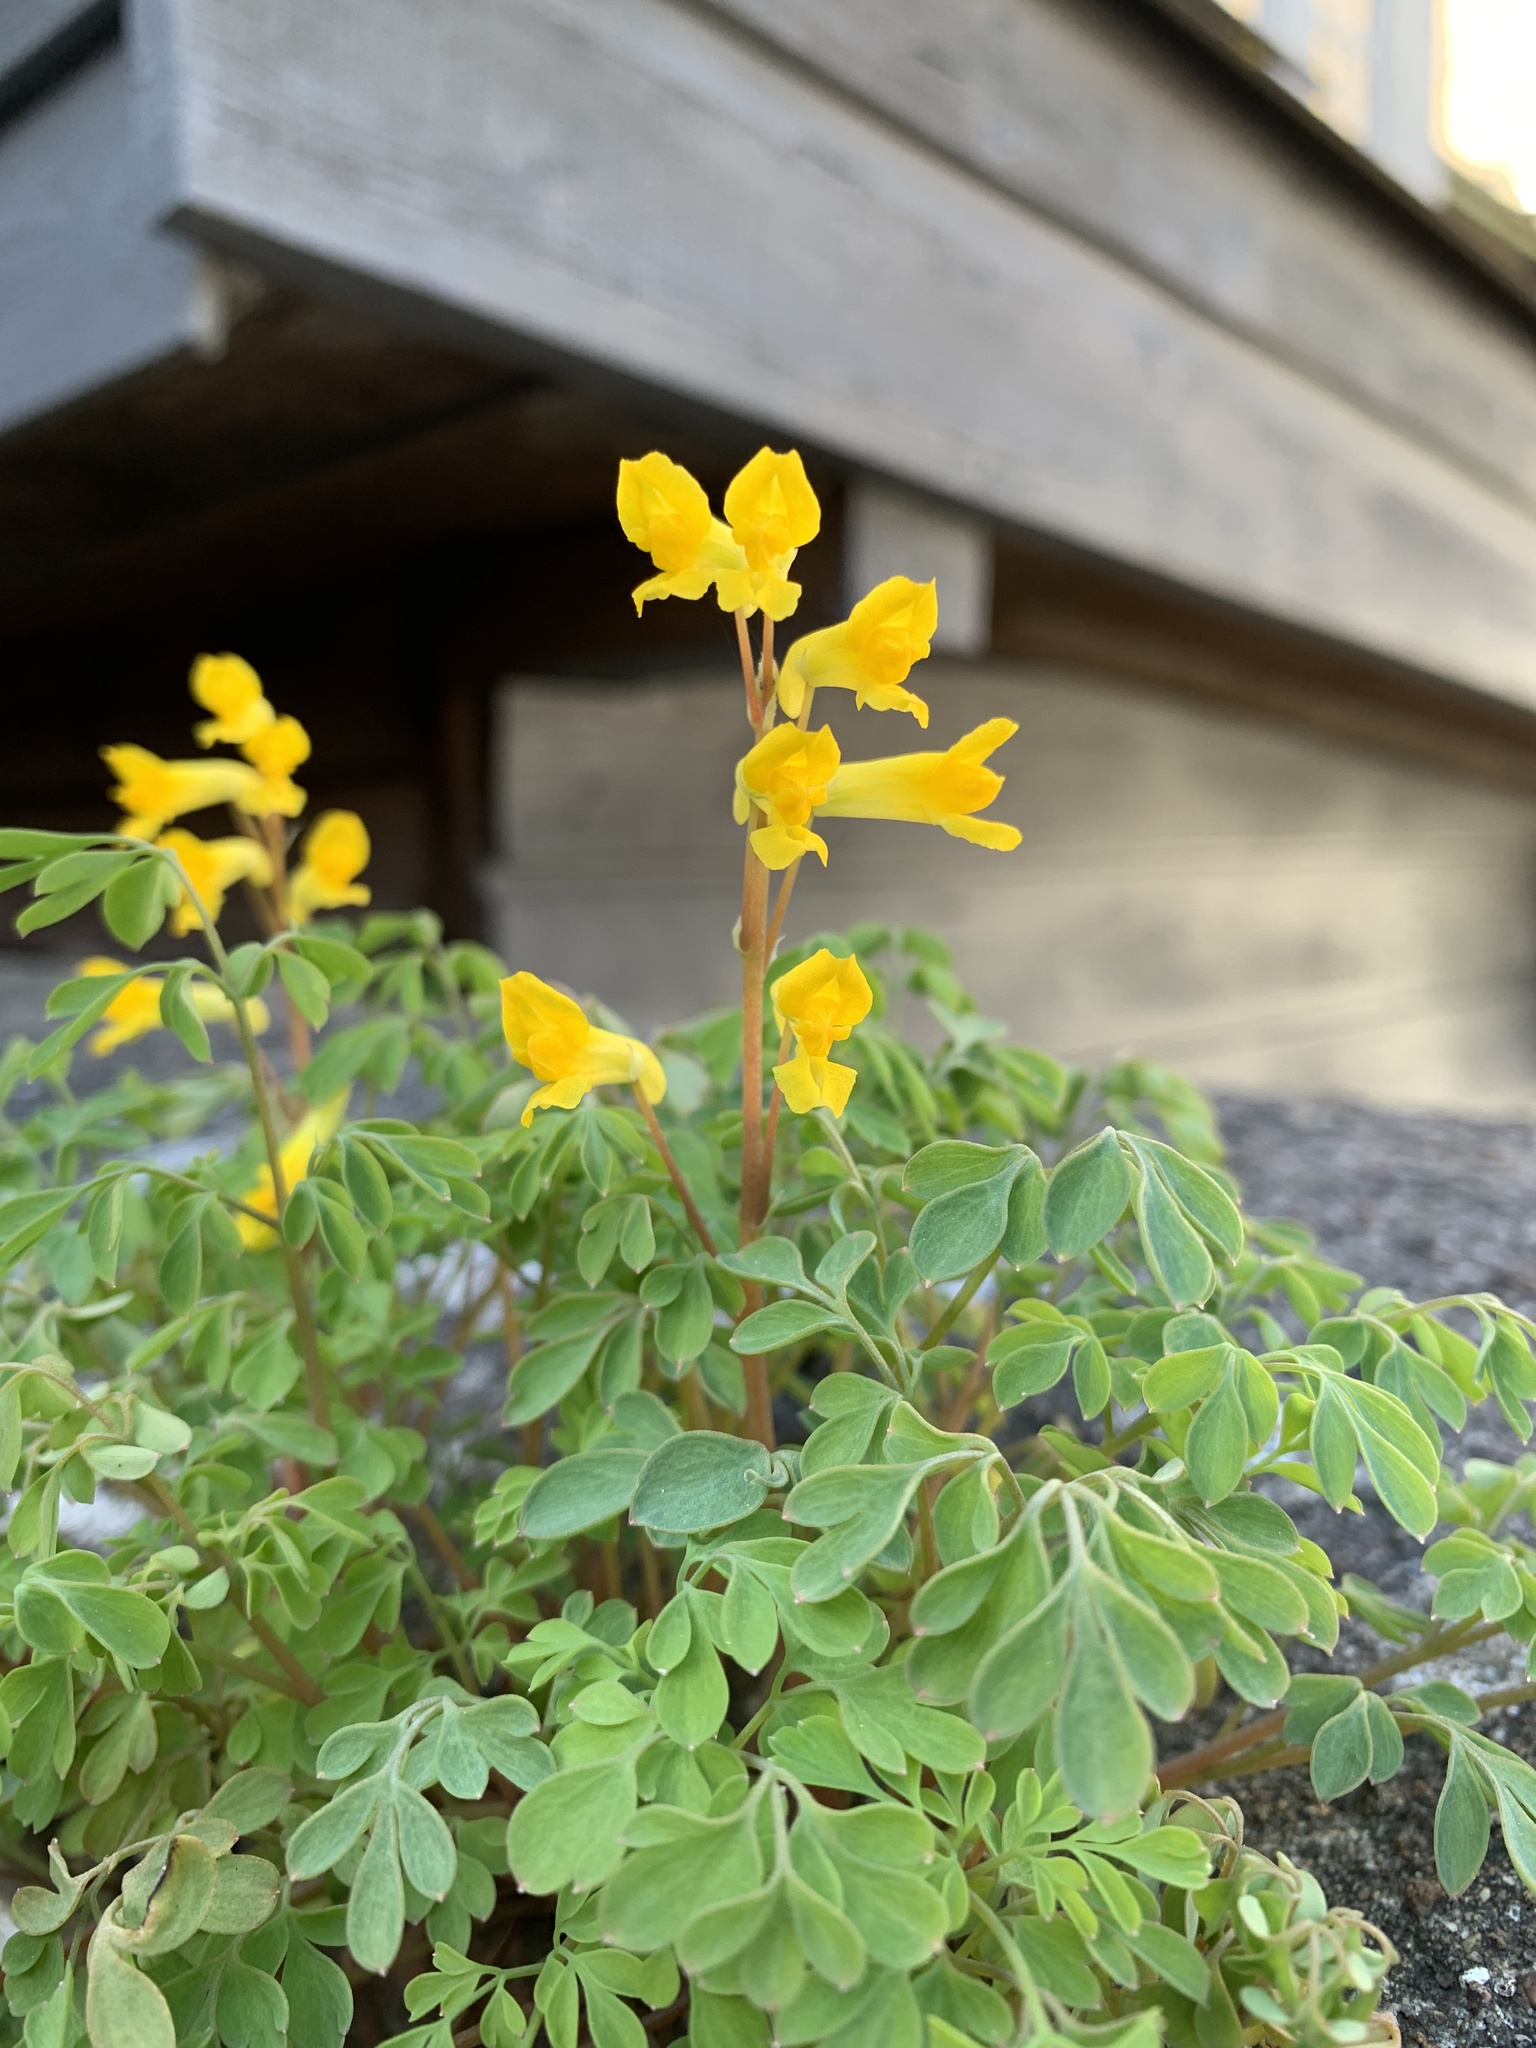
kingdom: Plantae
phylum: Tracheophyta
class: Magnoliopsida
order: Ranunculales
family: Papaveraceae
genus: Pseudofumaria
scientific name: Pseudofumaria lutea
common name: Yellow corydalis
